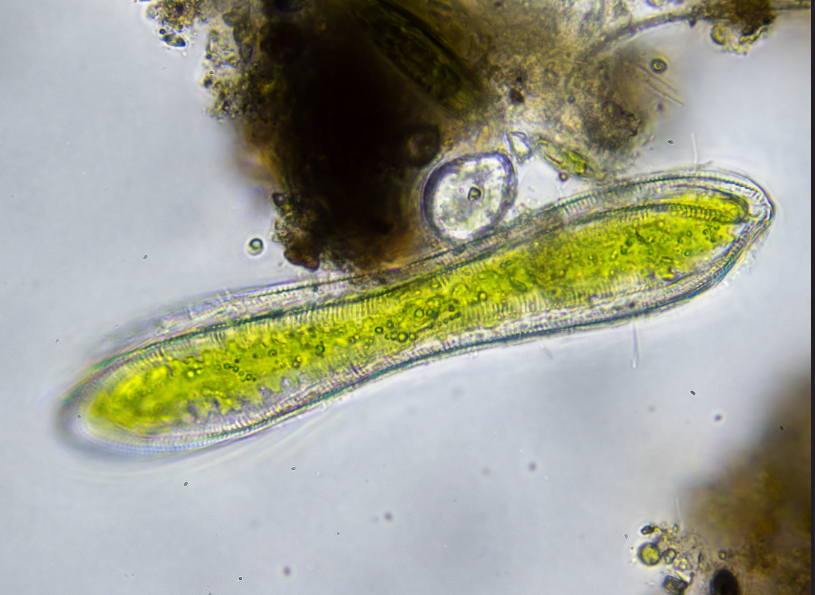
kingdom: Chromista
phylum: Ochrophyta
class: Bacillariophyceae
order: Surirellales
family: Surirellaceae
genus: Surirella
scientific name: Surirella librile
